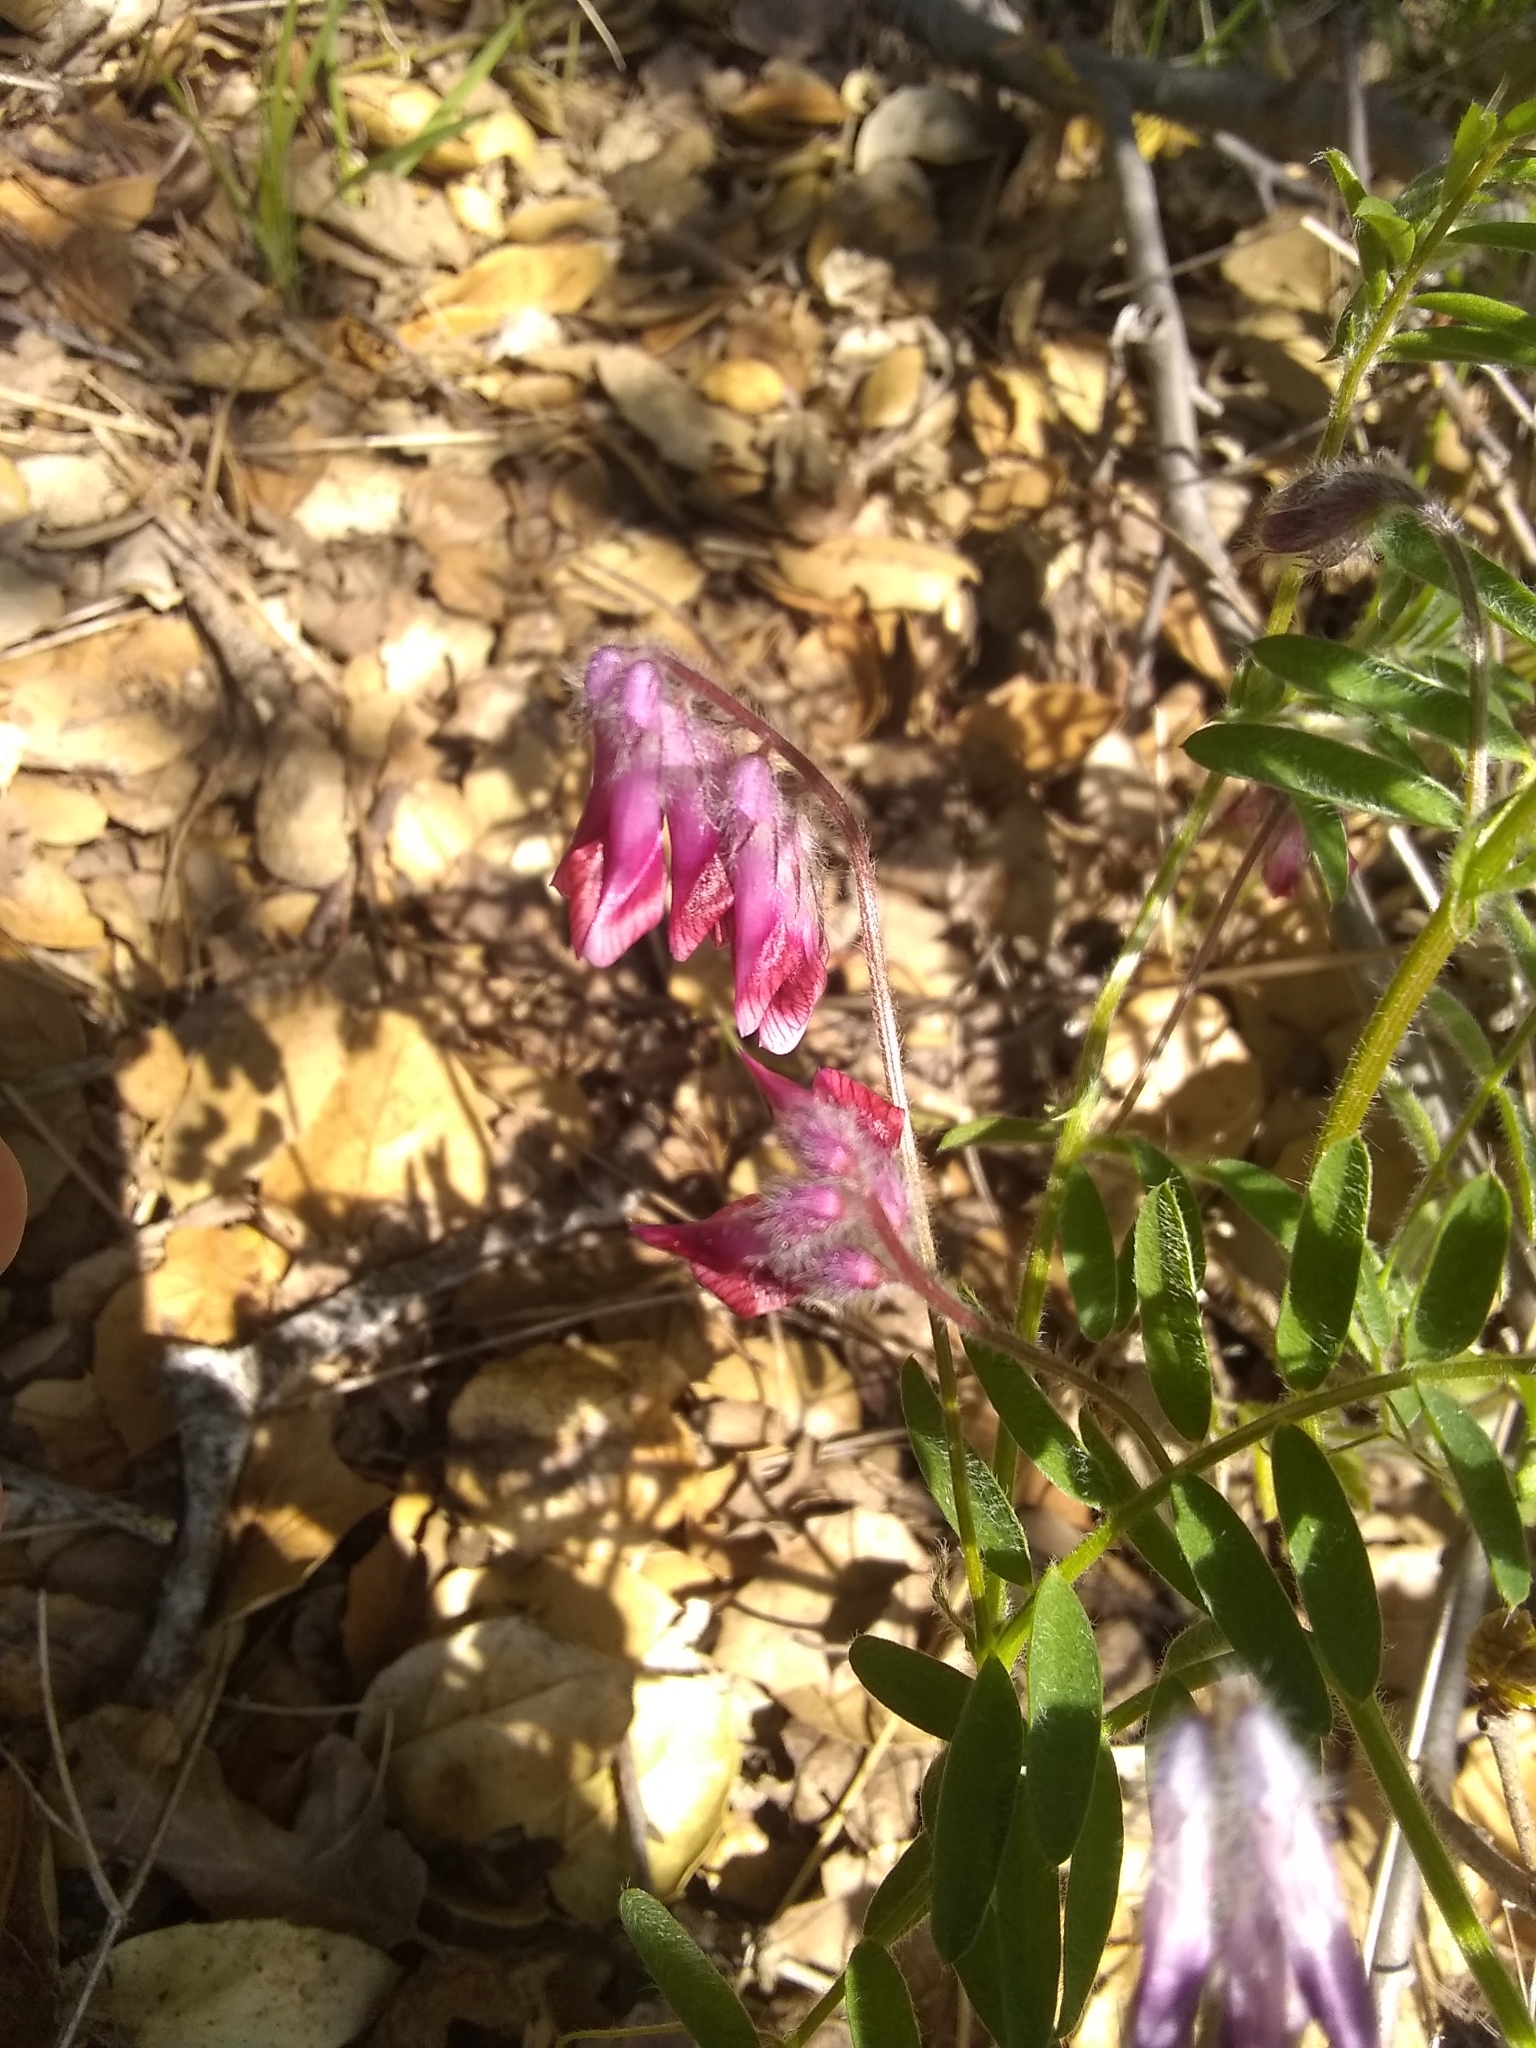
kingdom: Plantae
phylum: Tracheophyta
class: Magnoliopsida
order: Fabales
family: Fabaceae
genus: Vicia
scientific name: Vicia benghalensis
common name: Purple vetch
